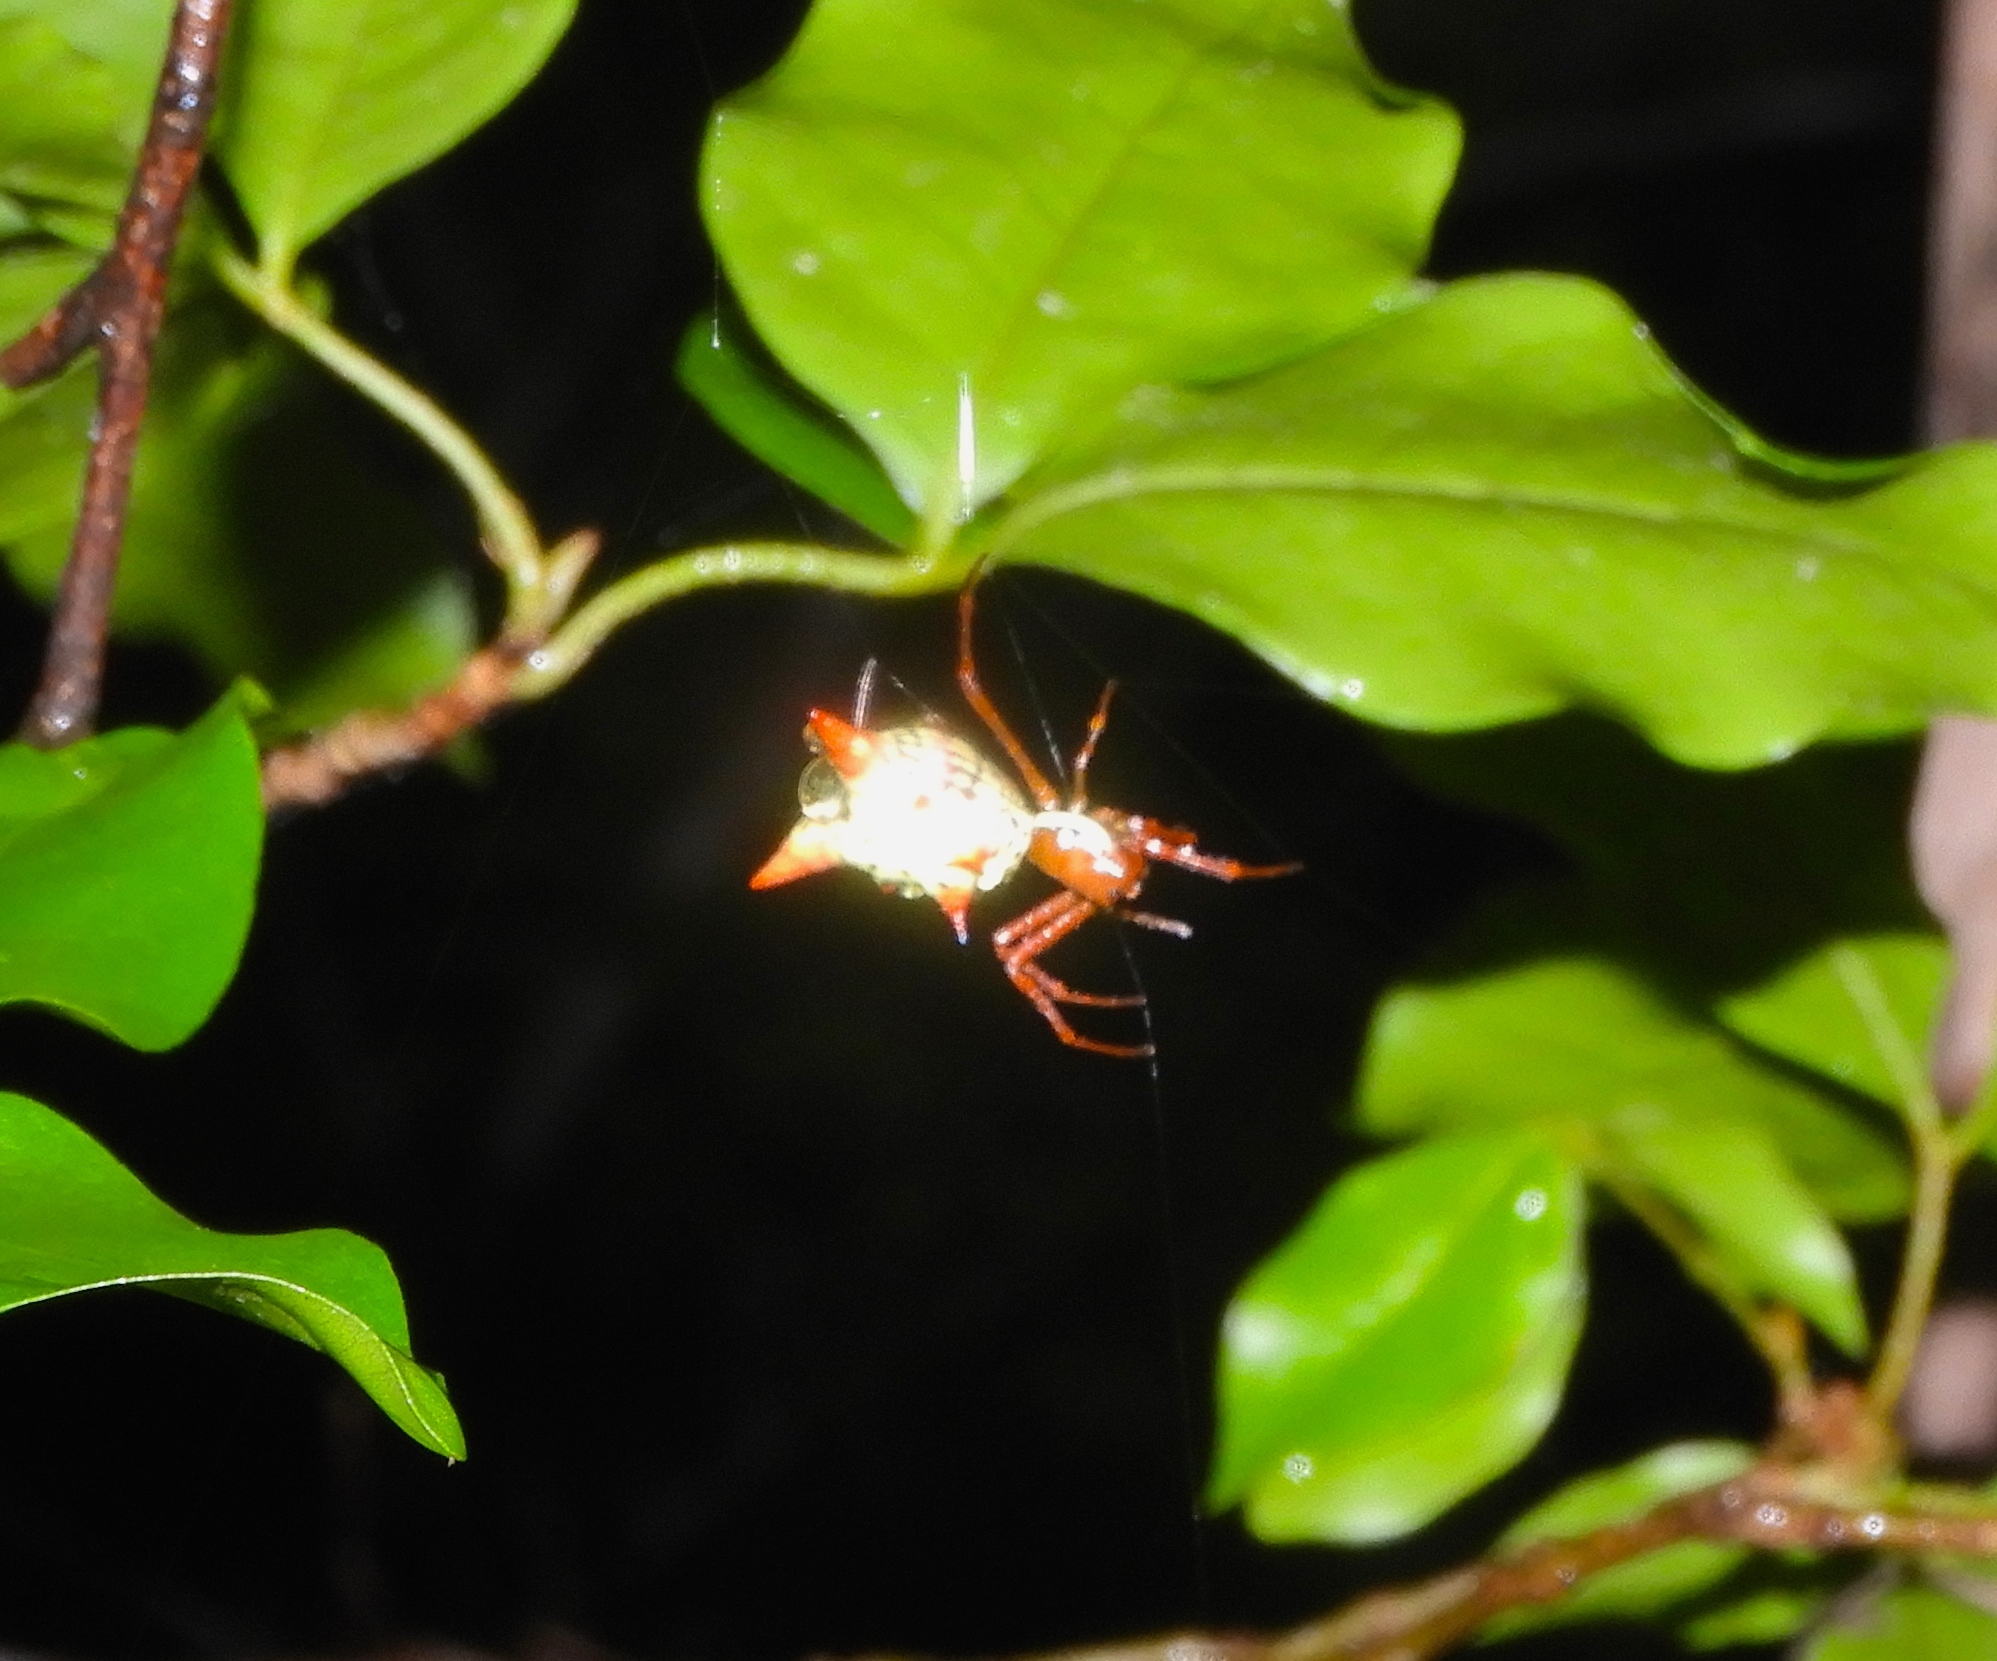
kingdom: Animalia
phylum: Arthropoda
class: Arachnida
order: Araneae
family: Araneidae
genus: Micrathena
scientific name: Micrathena sagittata
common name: Orb weavers
